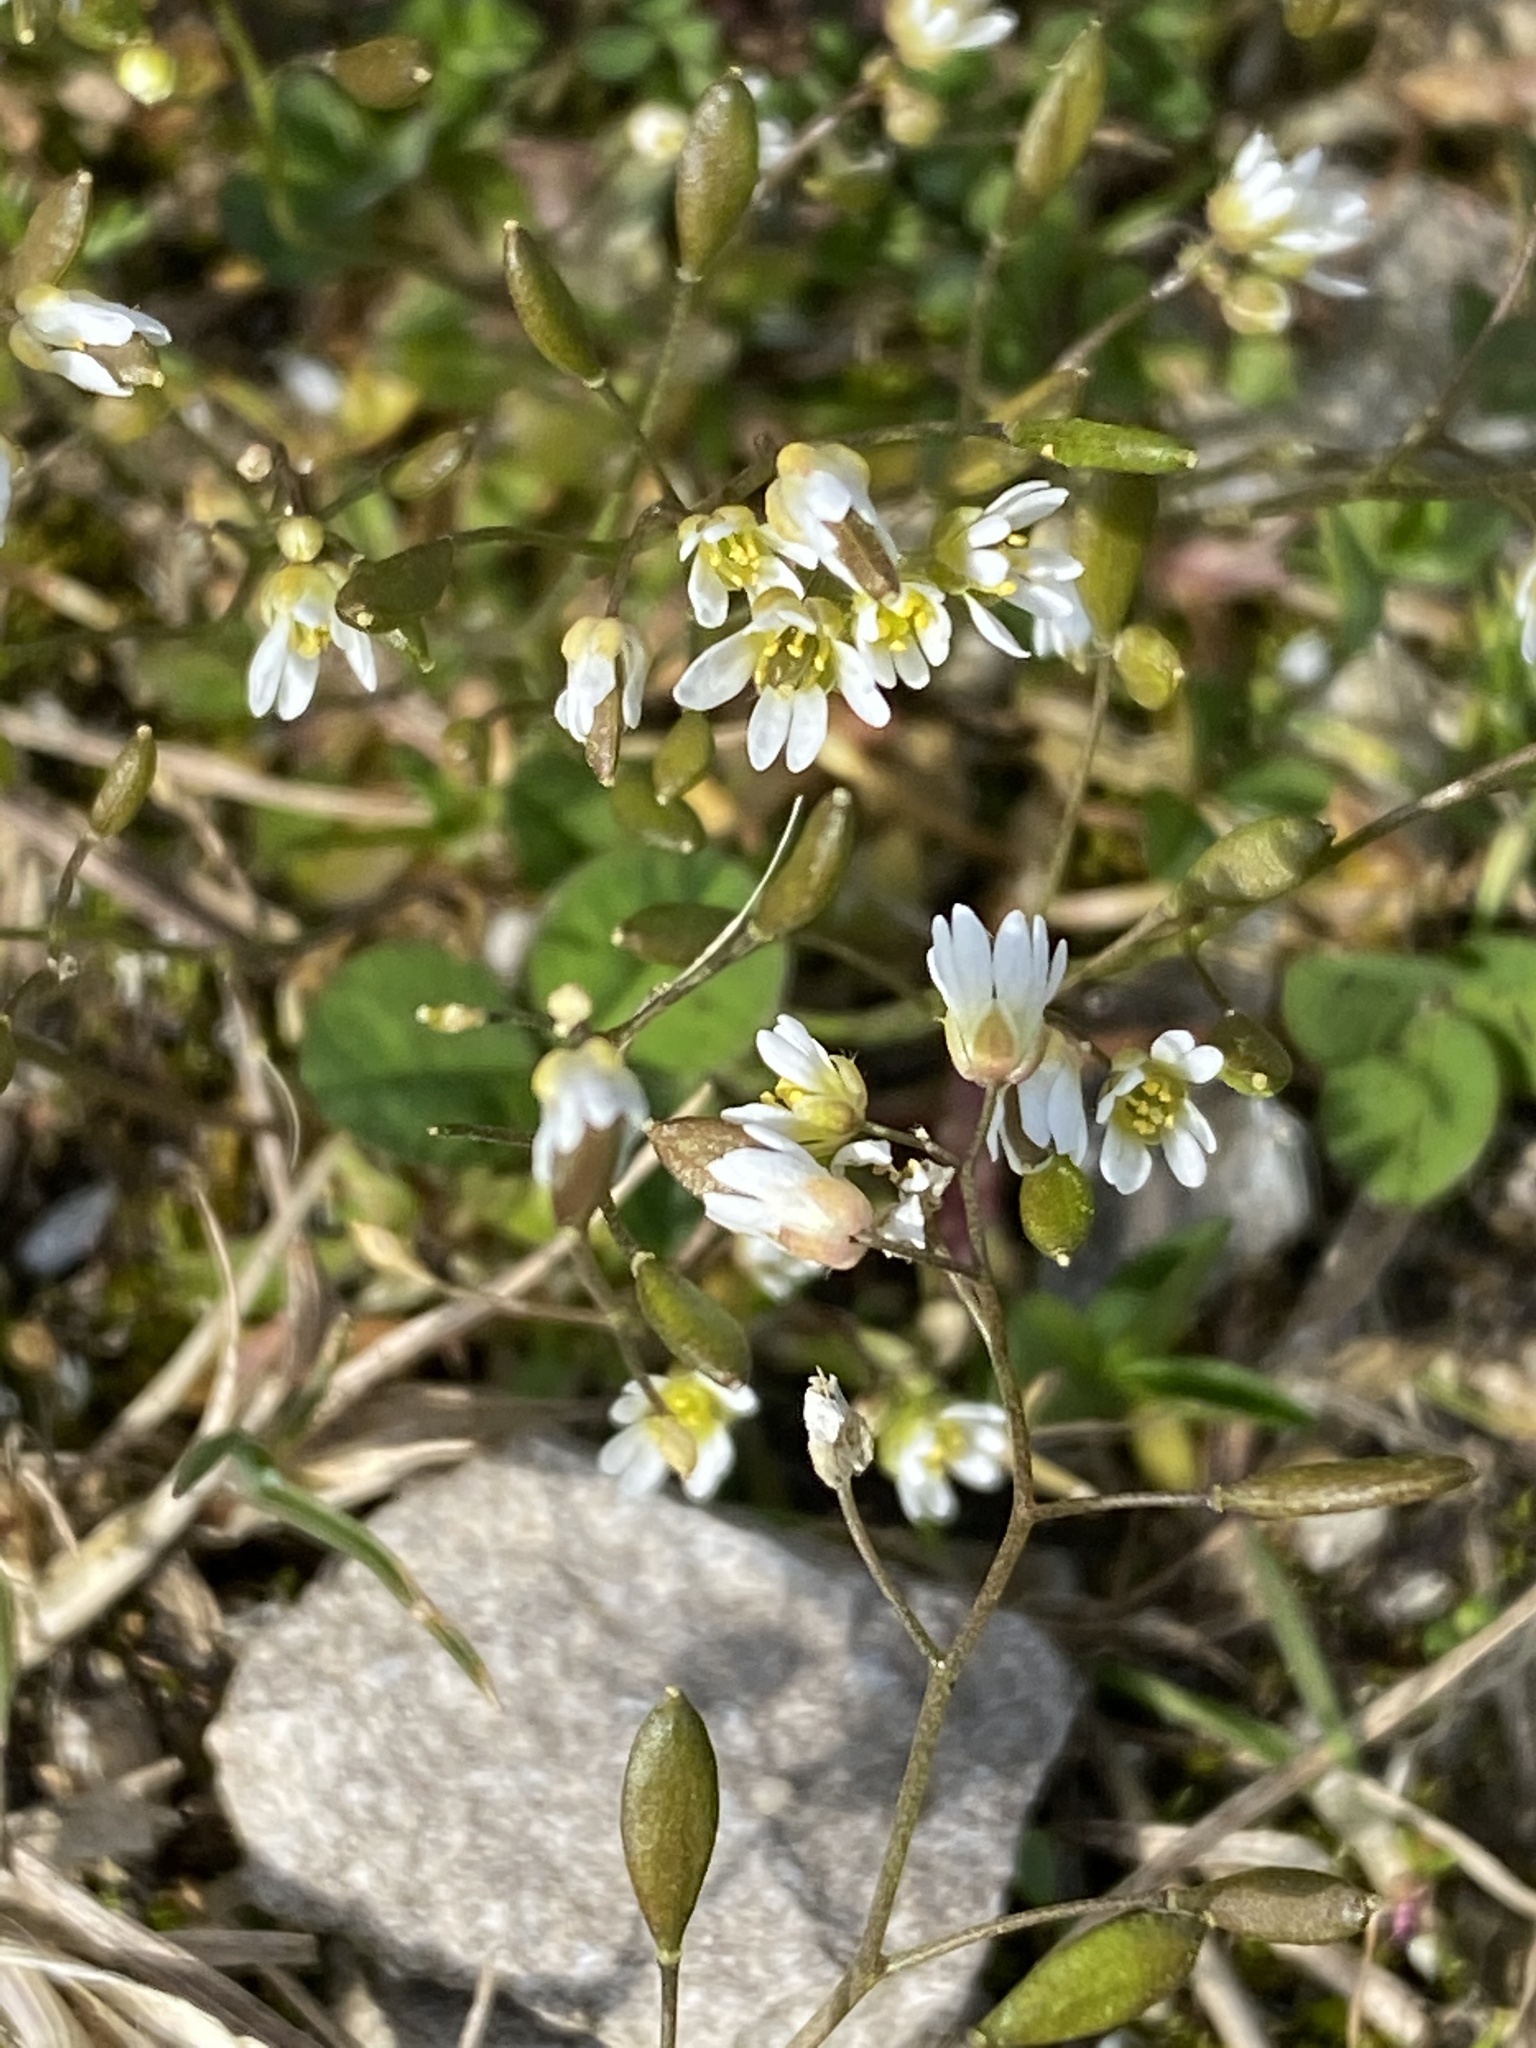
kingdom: Plantae
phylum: Tracheophyta
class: Magnoliopsida
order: Brassicales
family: Brassicaceae
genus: Draba
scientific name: Draba verna
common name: Spring draba
